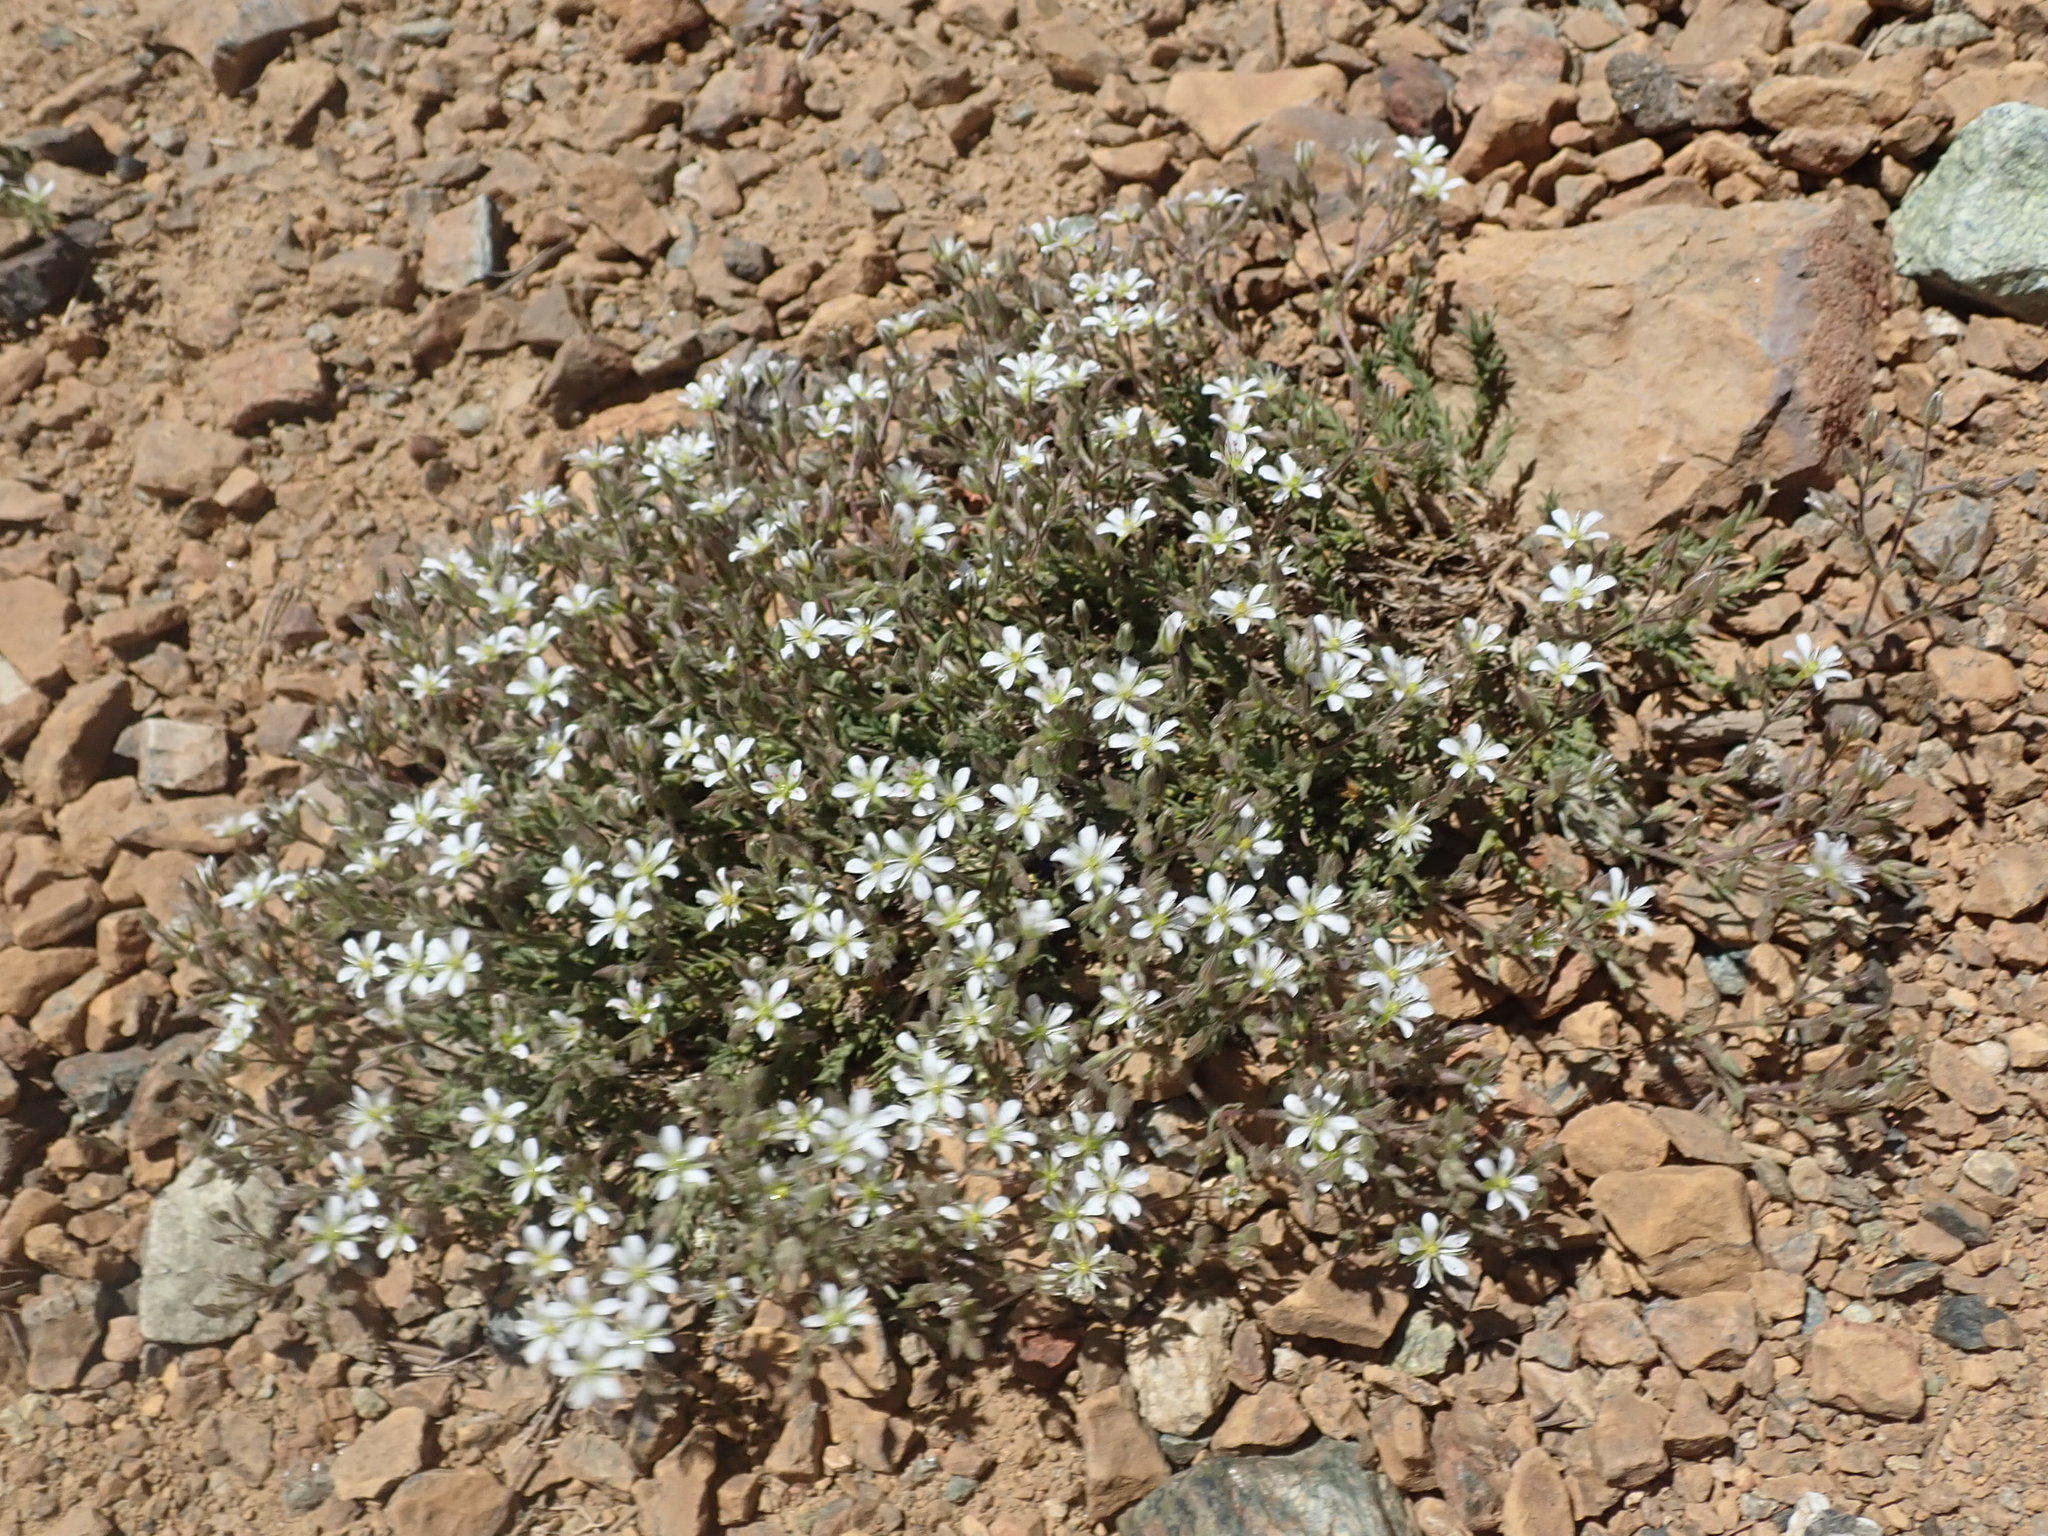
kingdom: Plantae
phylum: Tracheophyta
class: Magnoliopsida
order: Caryophyllales
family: Caryophyllaceae
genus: Sabulina
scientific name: Sabulina nuttallii
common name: Nuttall's stitchwort
